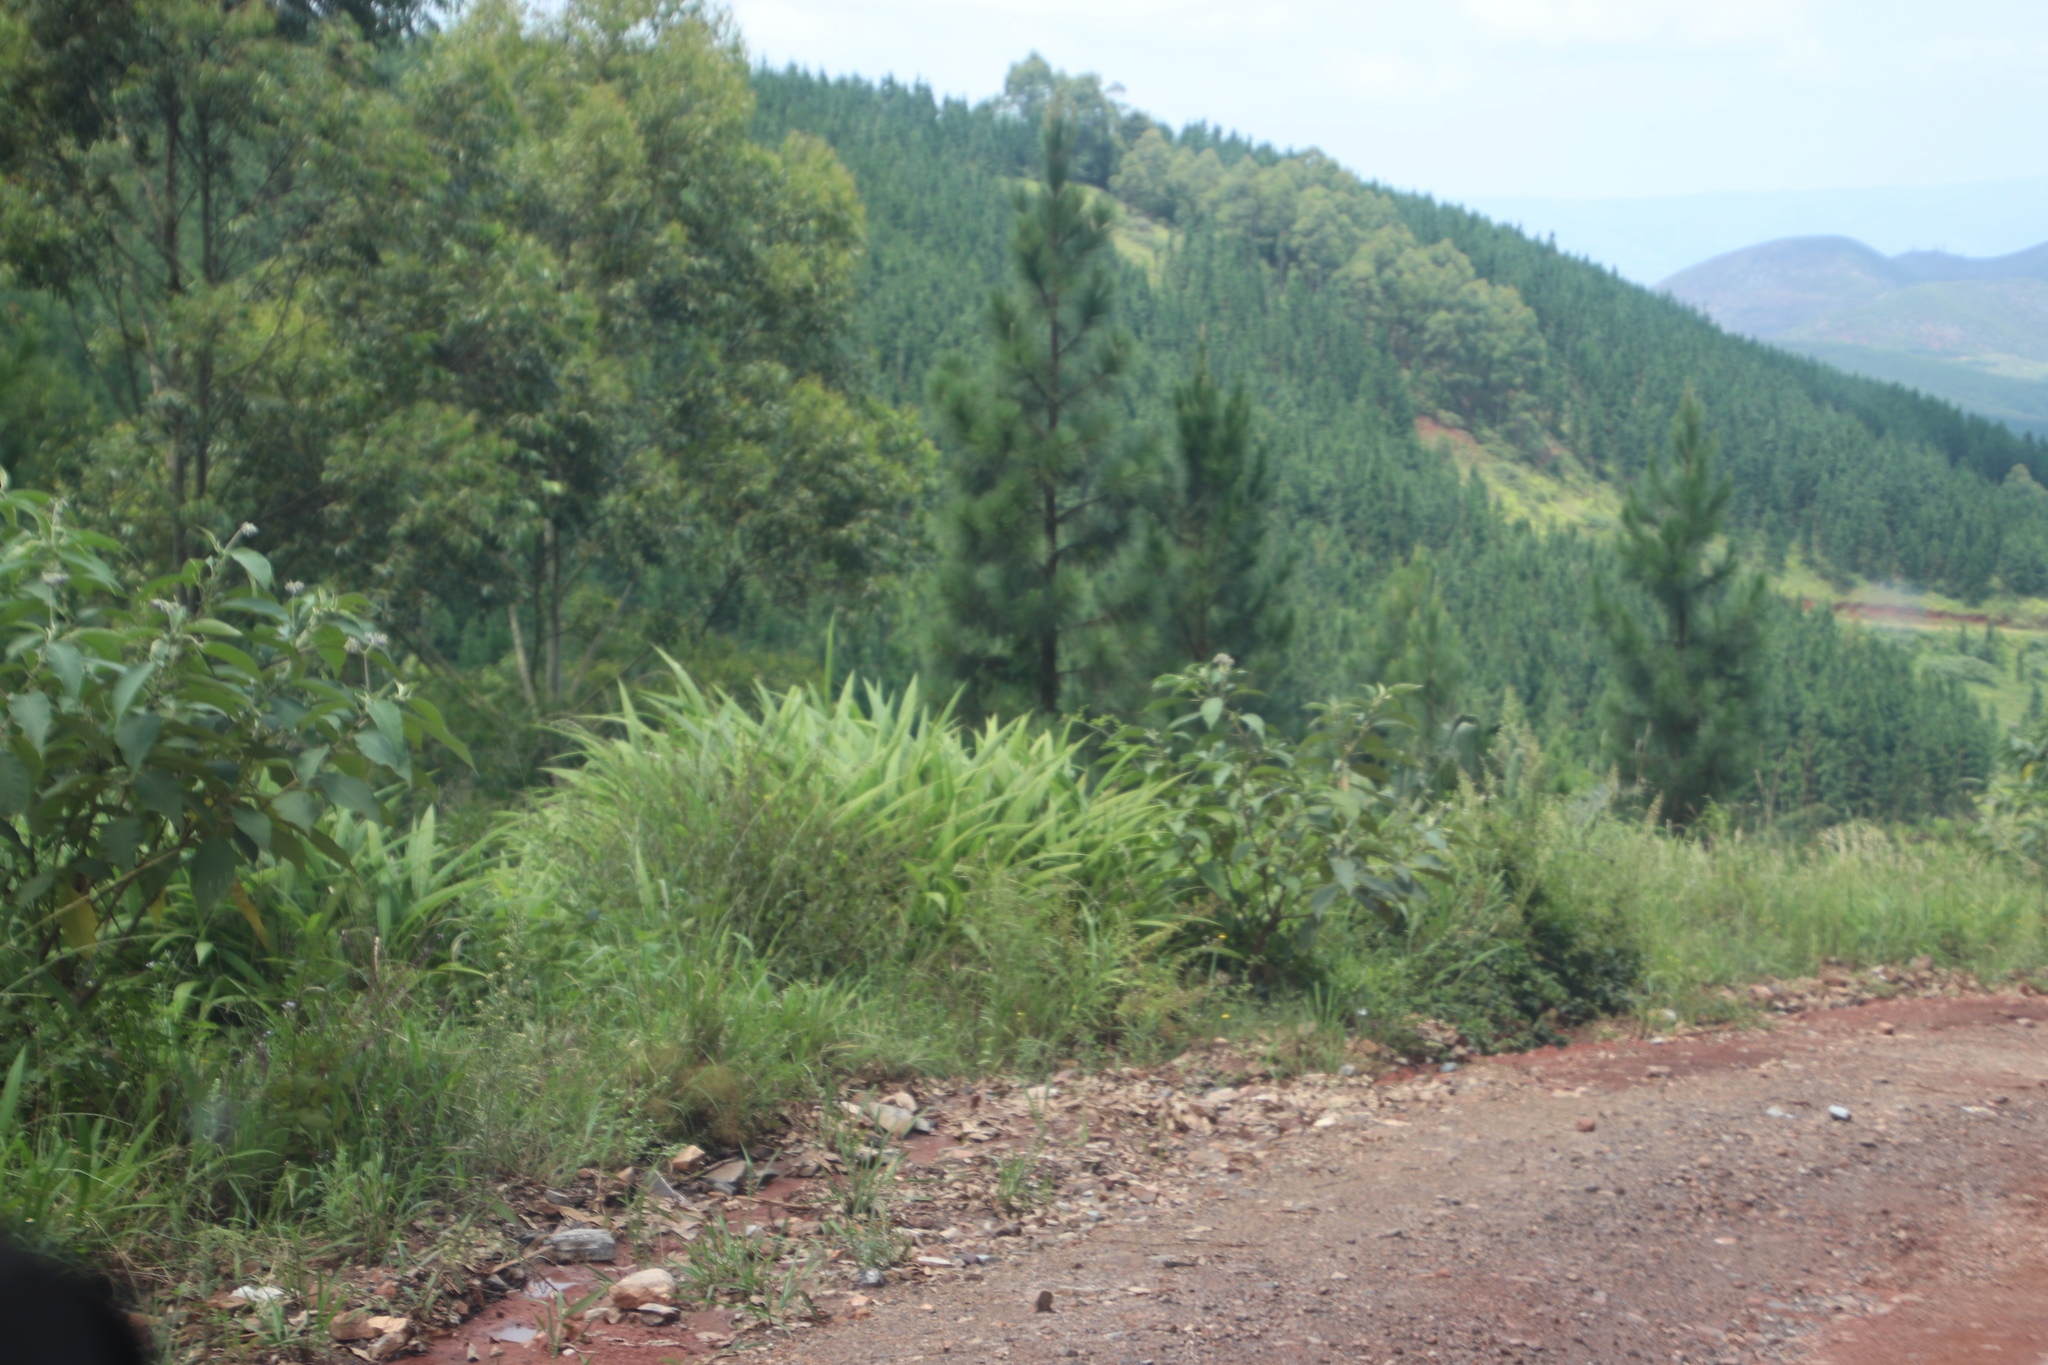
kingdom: Plantae
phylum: Tracheophyta
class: Magnoliopsida
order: Solanales
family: Solanaceae
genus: Solanum
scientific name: Solanum mauritianum
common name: Earleaf nightshade
